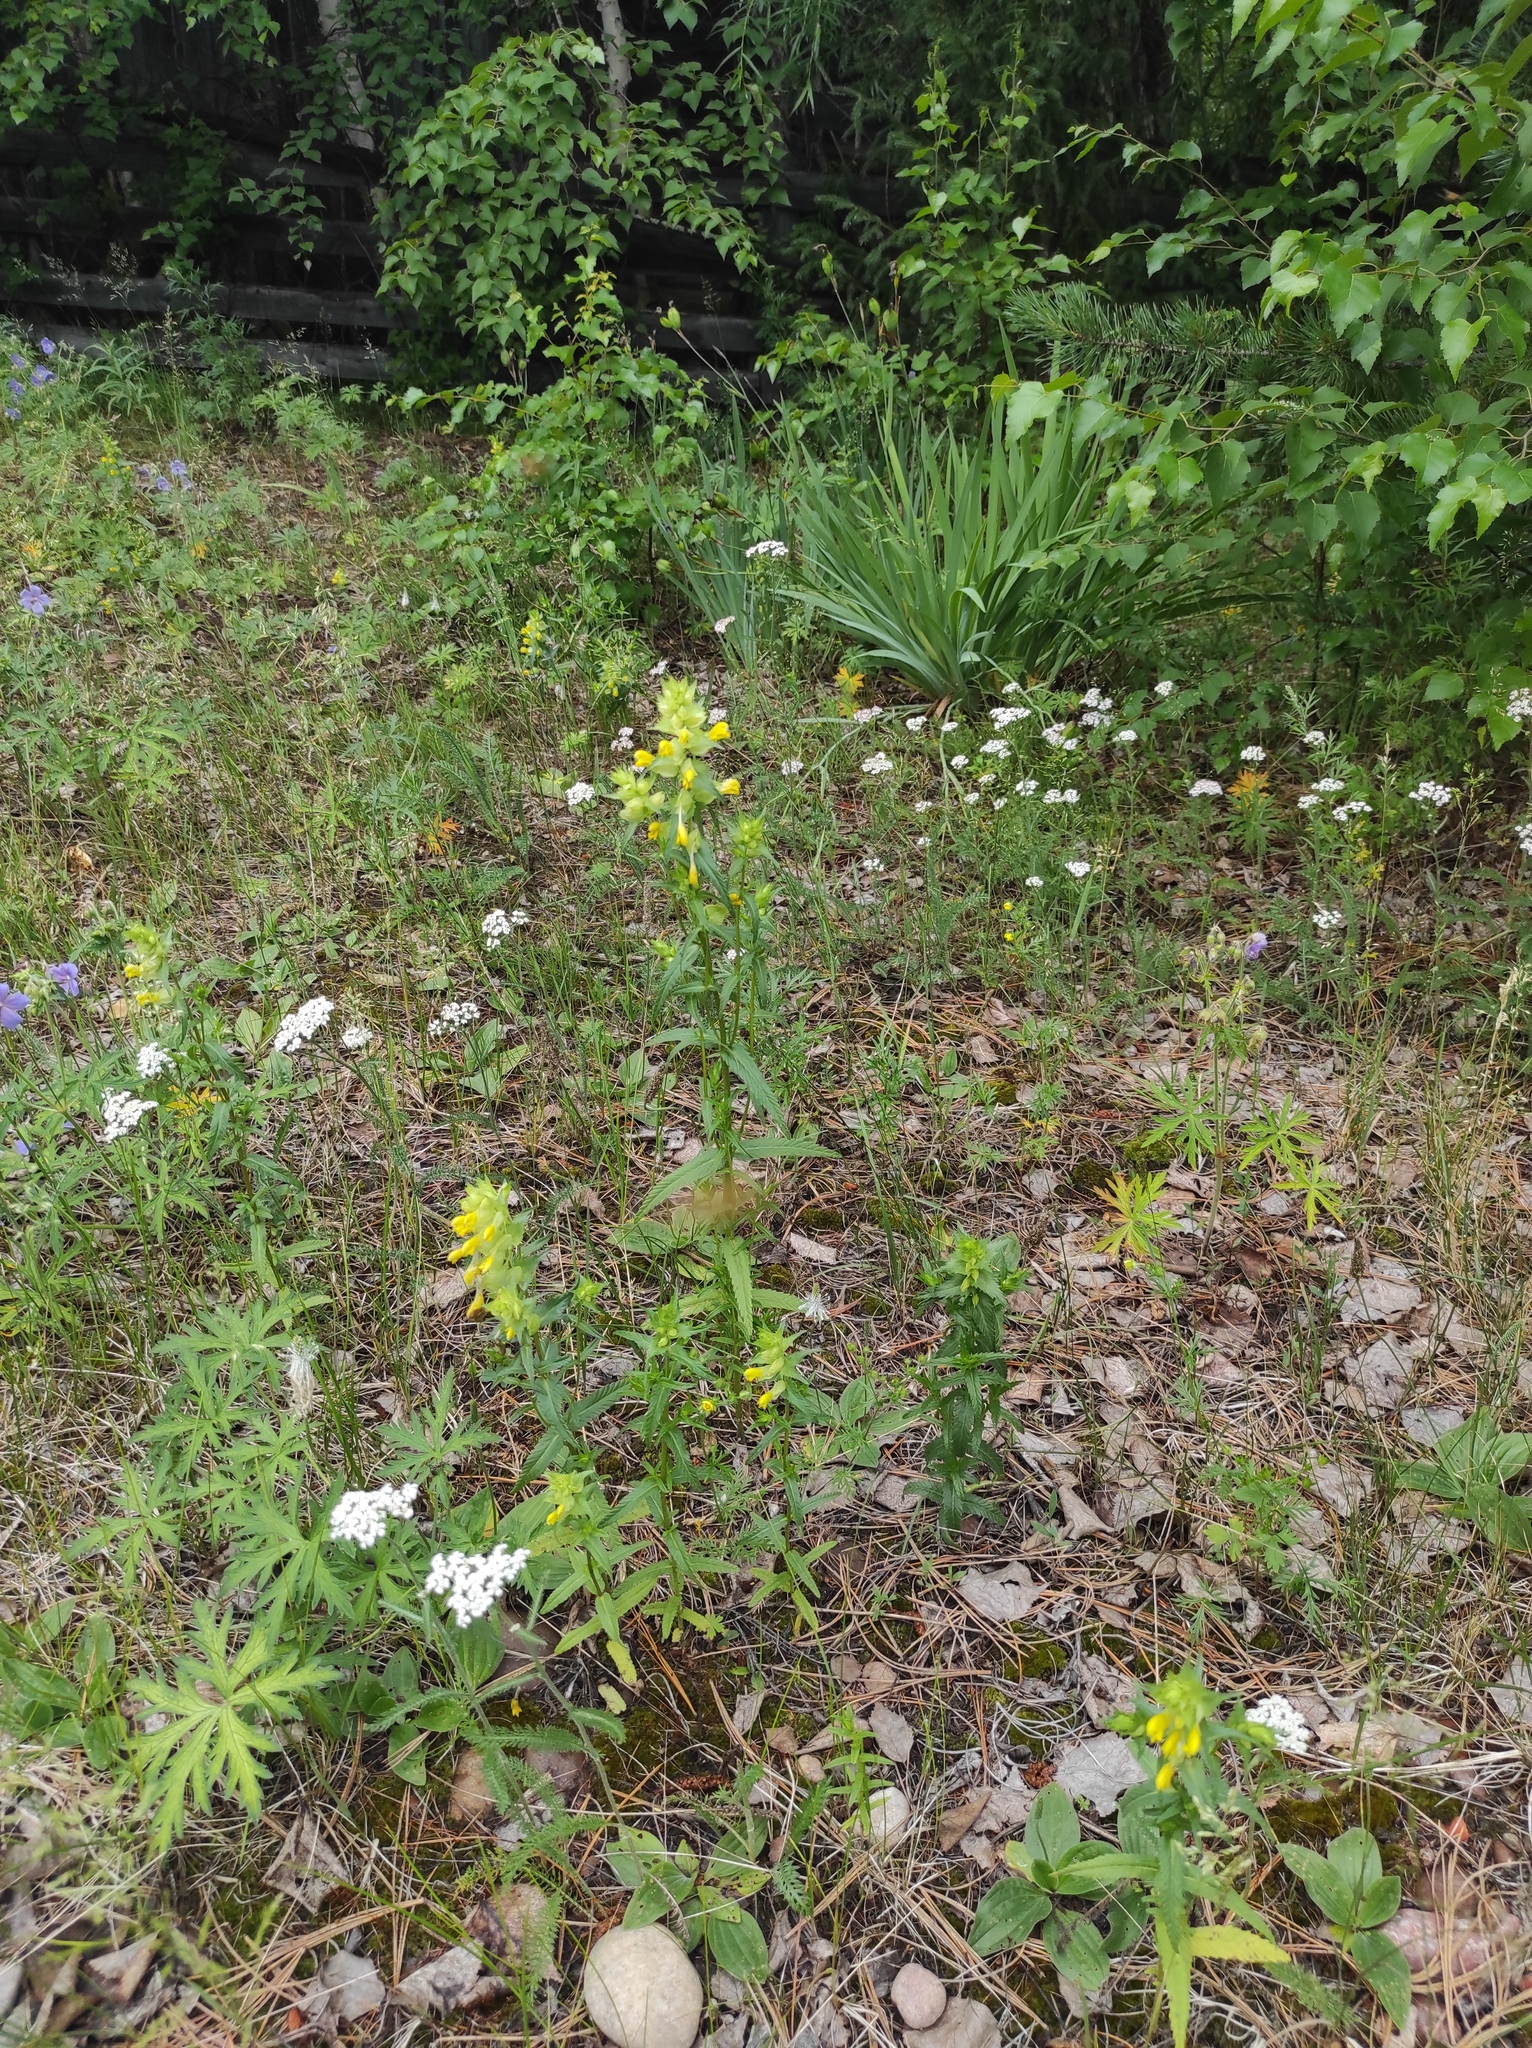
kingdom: Plantae
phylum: Tracheophyta
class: Magnoliopsida
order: Lamiales
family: Orobanchaceae
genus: Rhinanthus
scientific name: Rhinanthus serotinus
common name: Late-flowering yellow rattle
